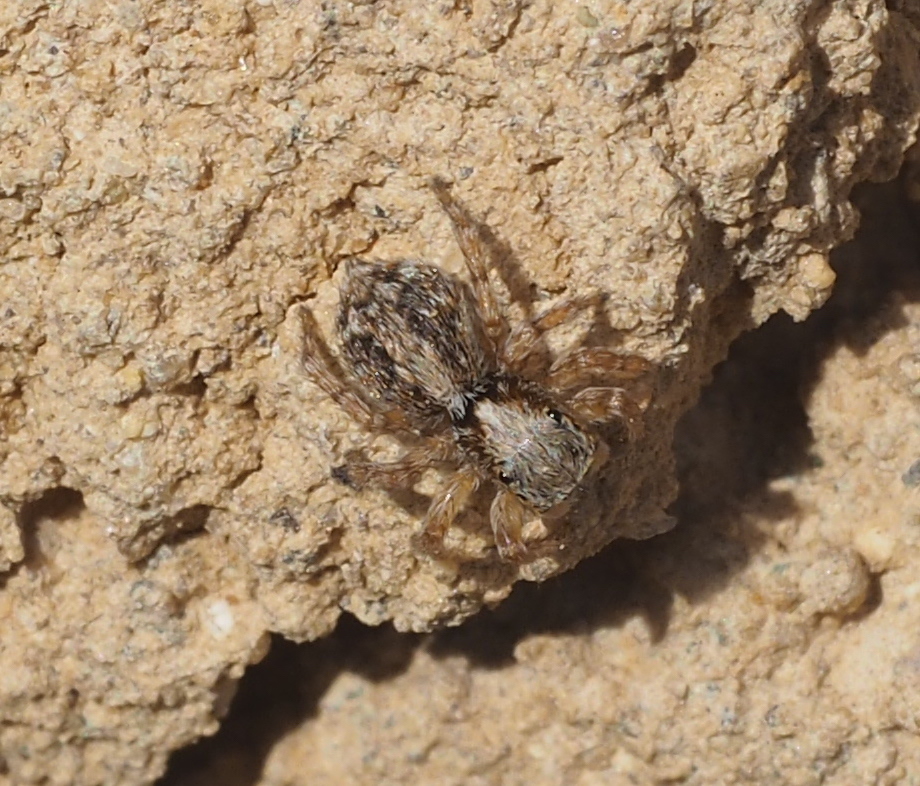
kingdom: Animalia
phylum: Arthropoda
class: Arachnida
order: Araneae
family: Salticidae
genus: Pseudeuophrys
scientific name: Pseudeuophrys lanigera
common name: Jumping spider
